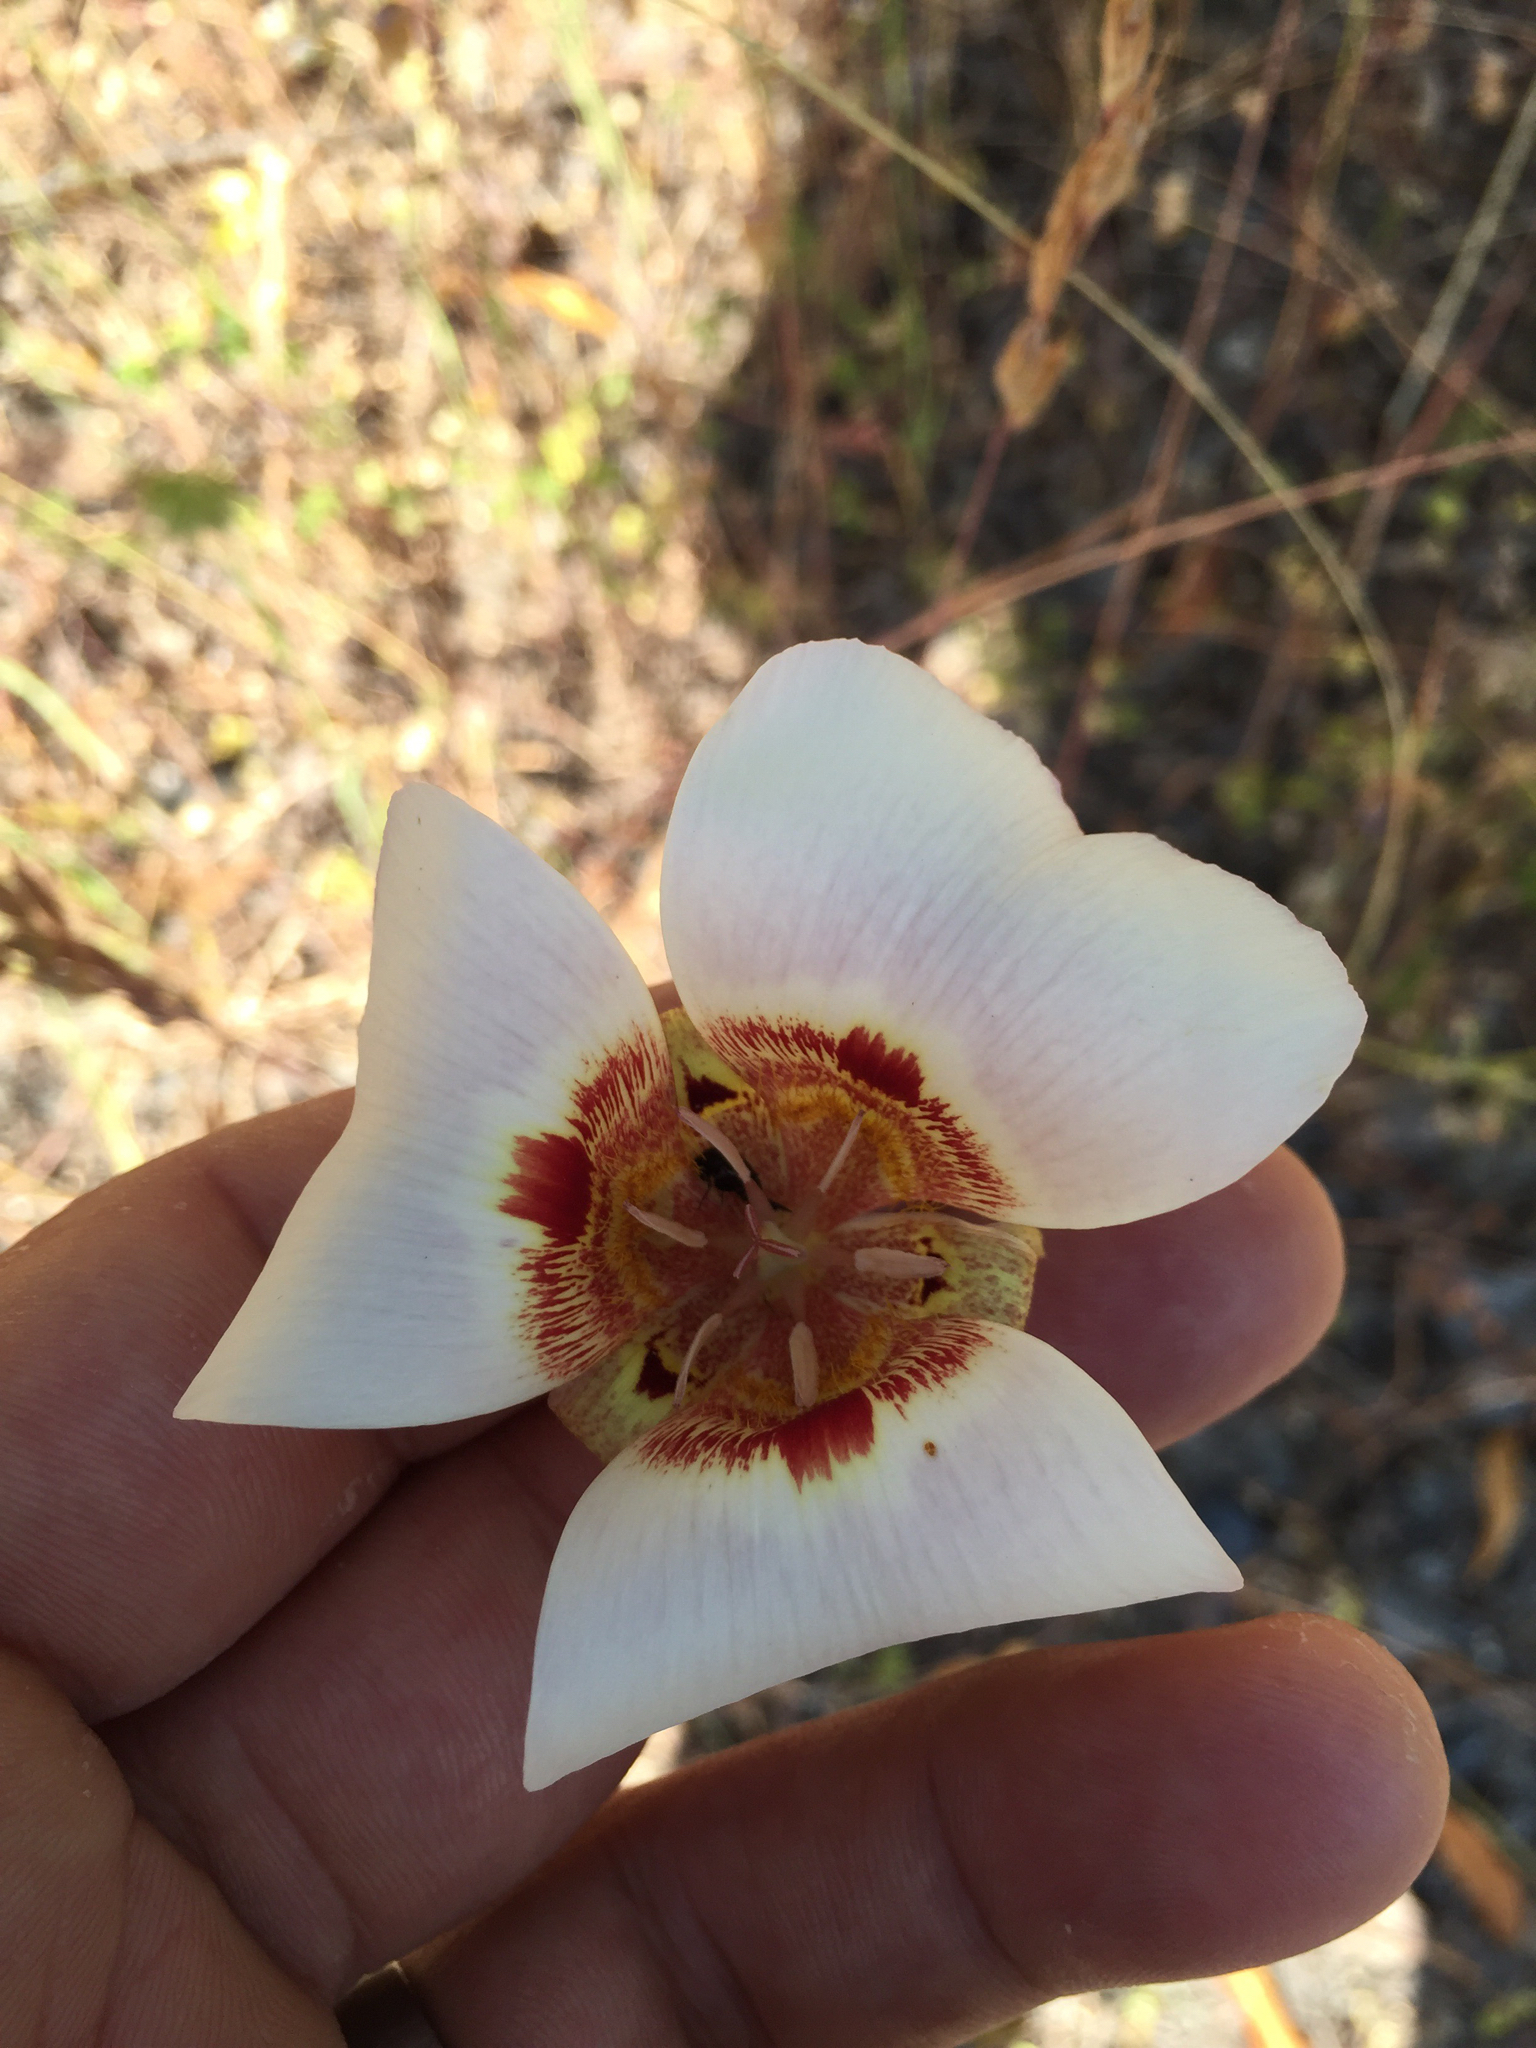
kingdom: Plantae
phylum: Tracheophyta
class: Liliopsida
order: Liliales
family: Liliaceae
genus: Calochortus
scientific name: Calochortus vestae
